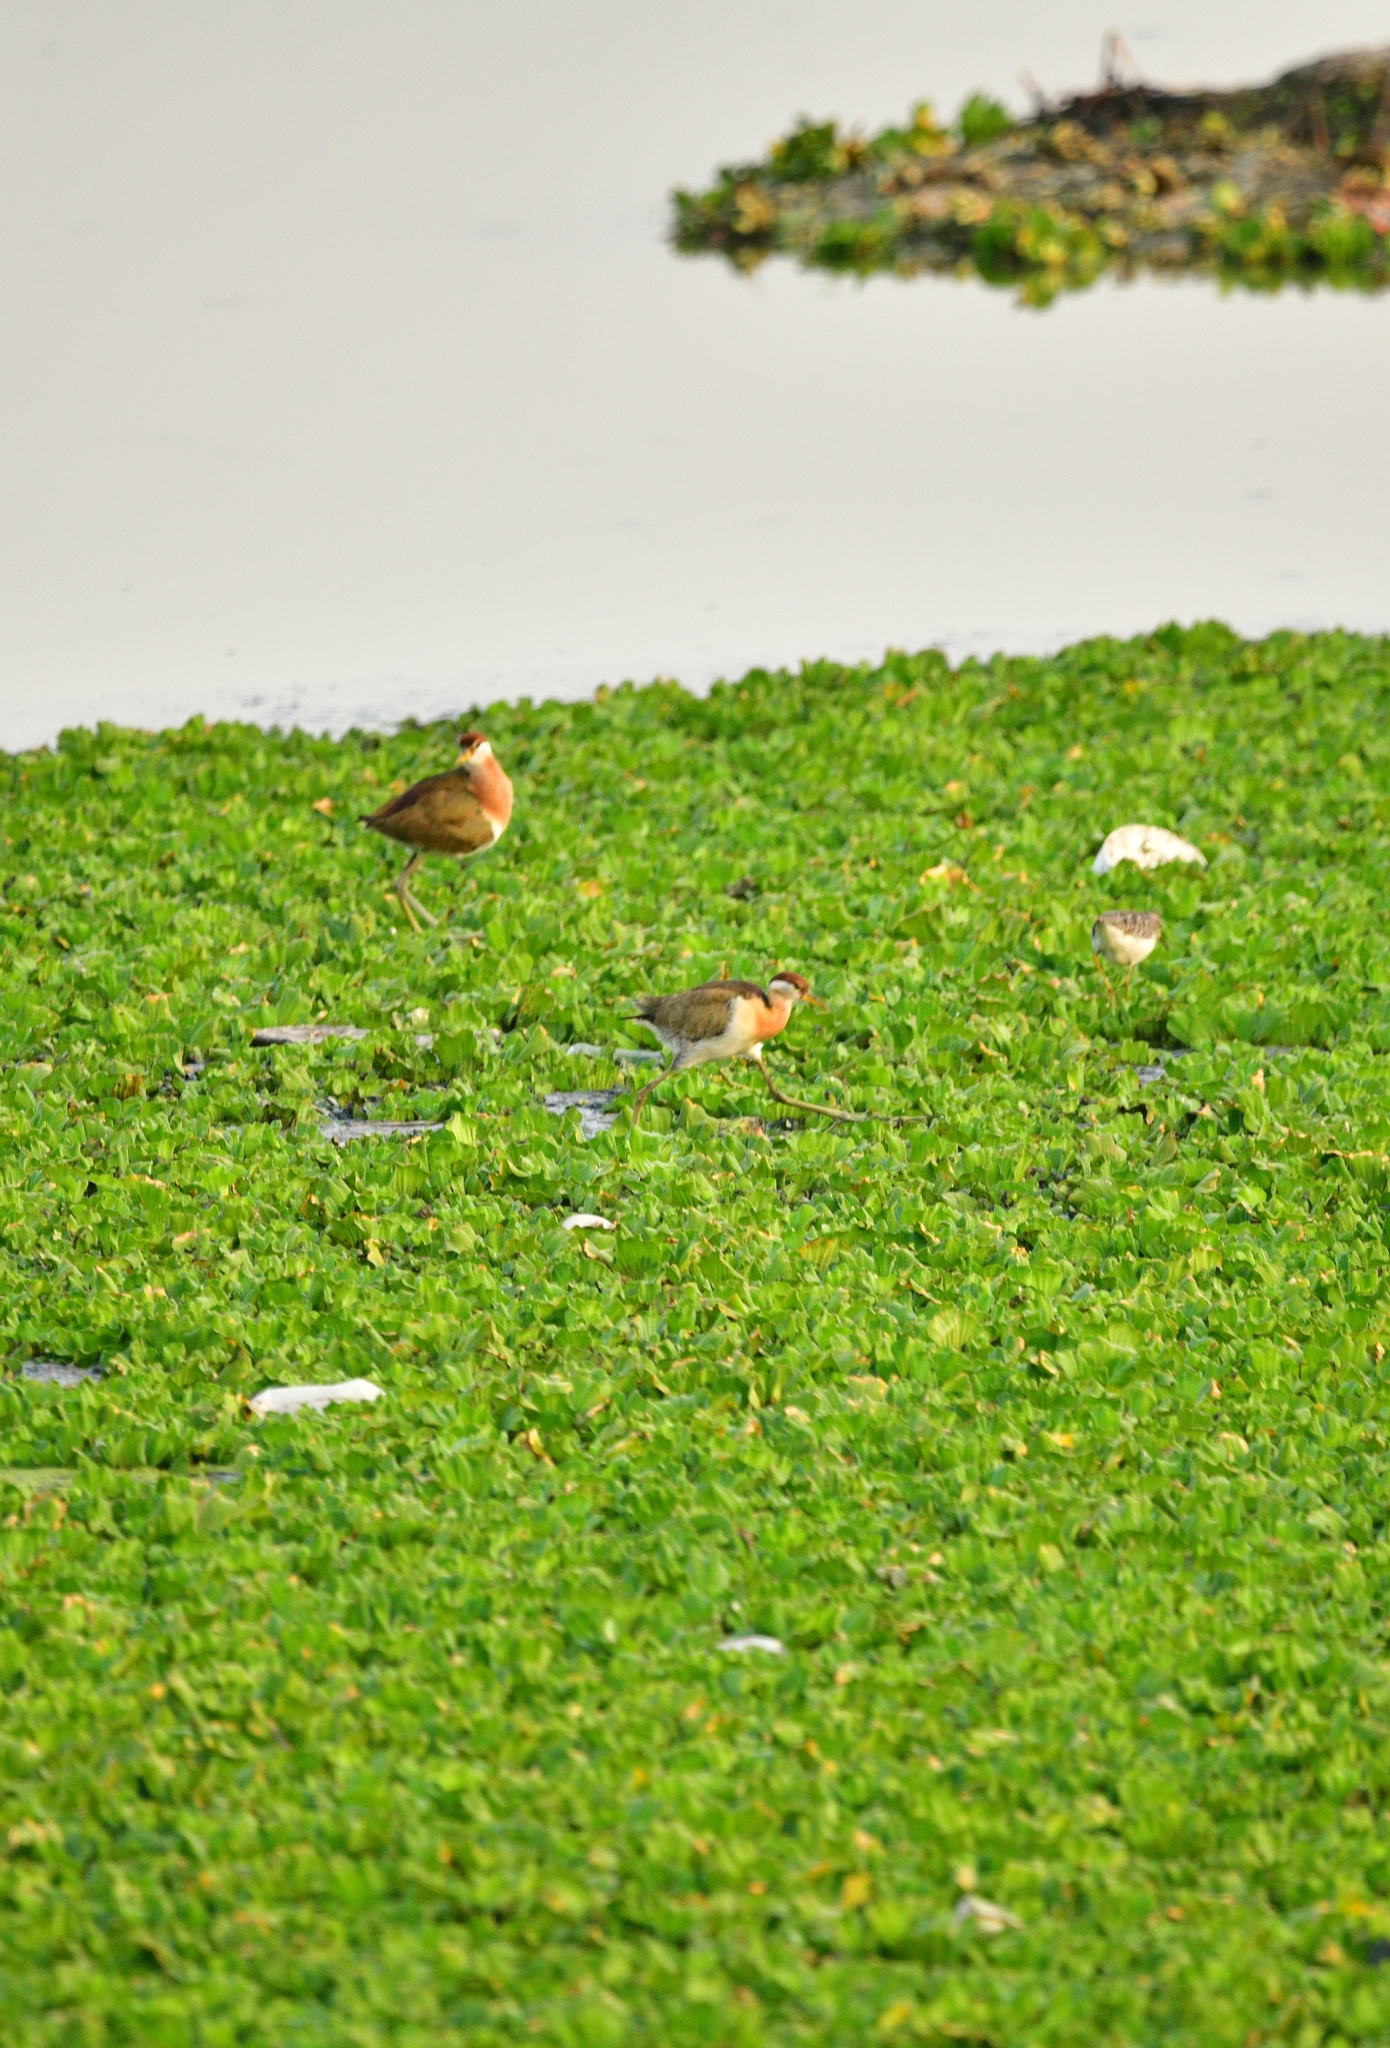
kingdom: Animalia
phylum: Chordata
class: Aves
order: Charadriiformes
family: Jacanidae
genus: Metopidius
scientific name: Metopidius indicus
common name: Bronze-winged jacana
